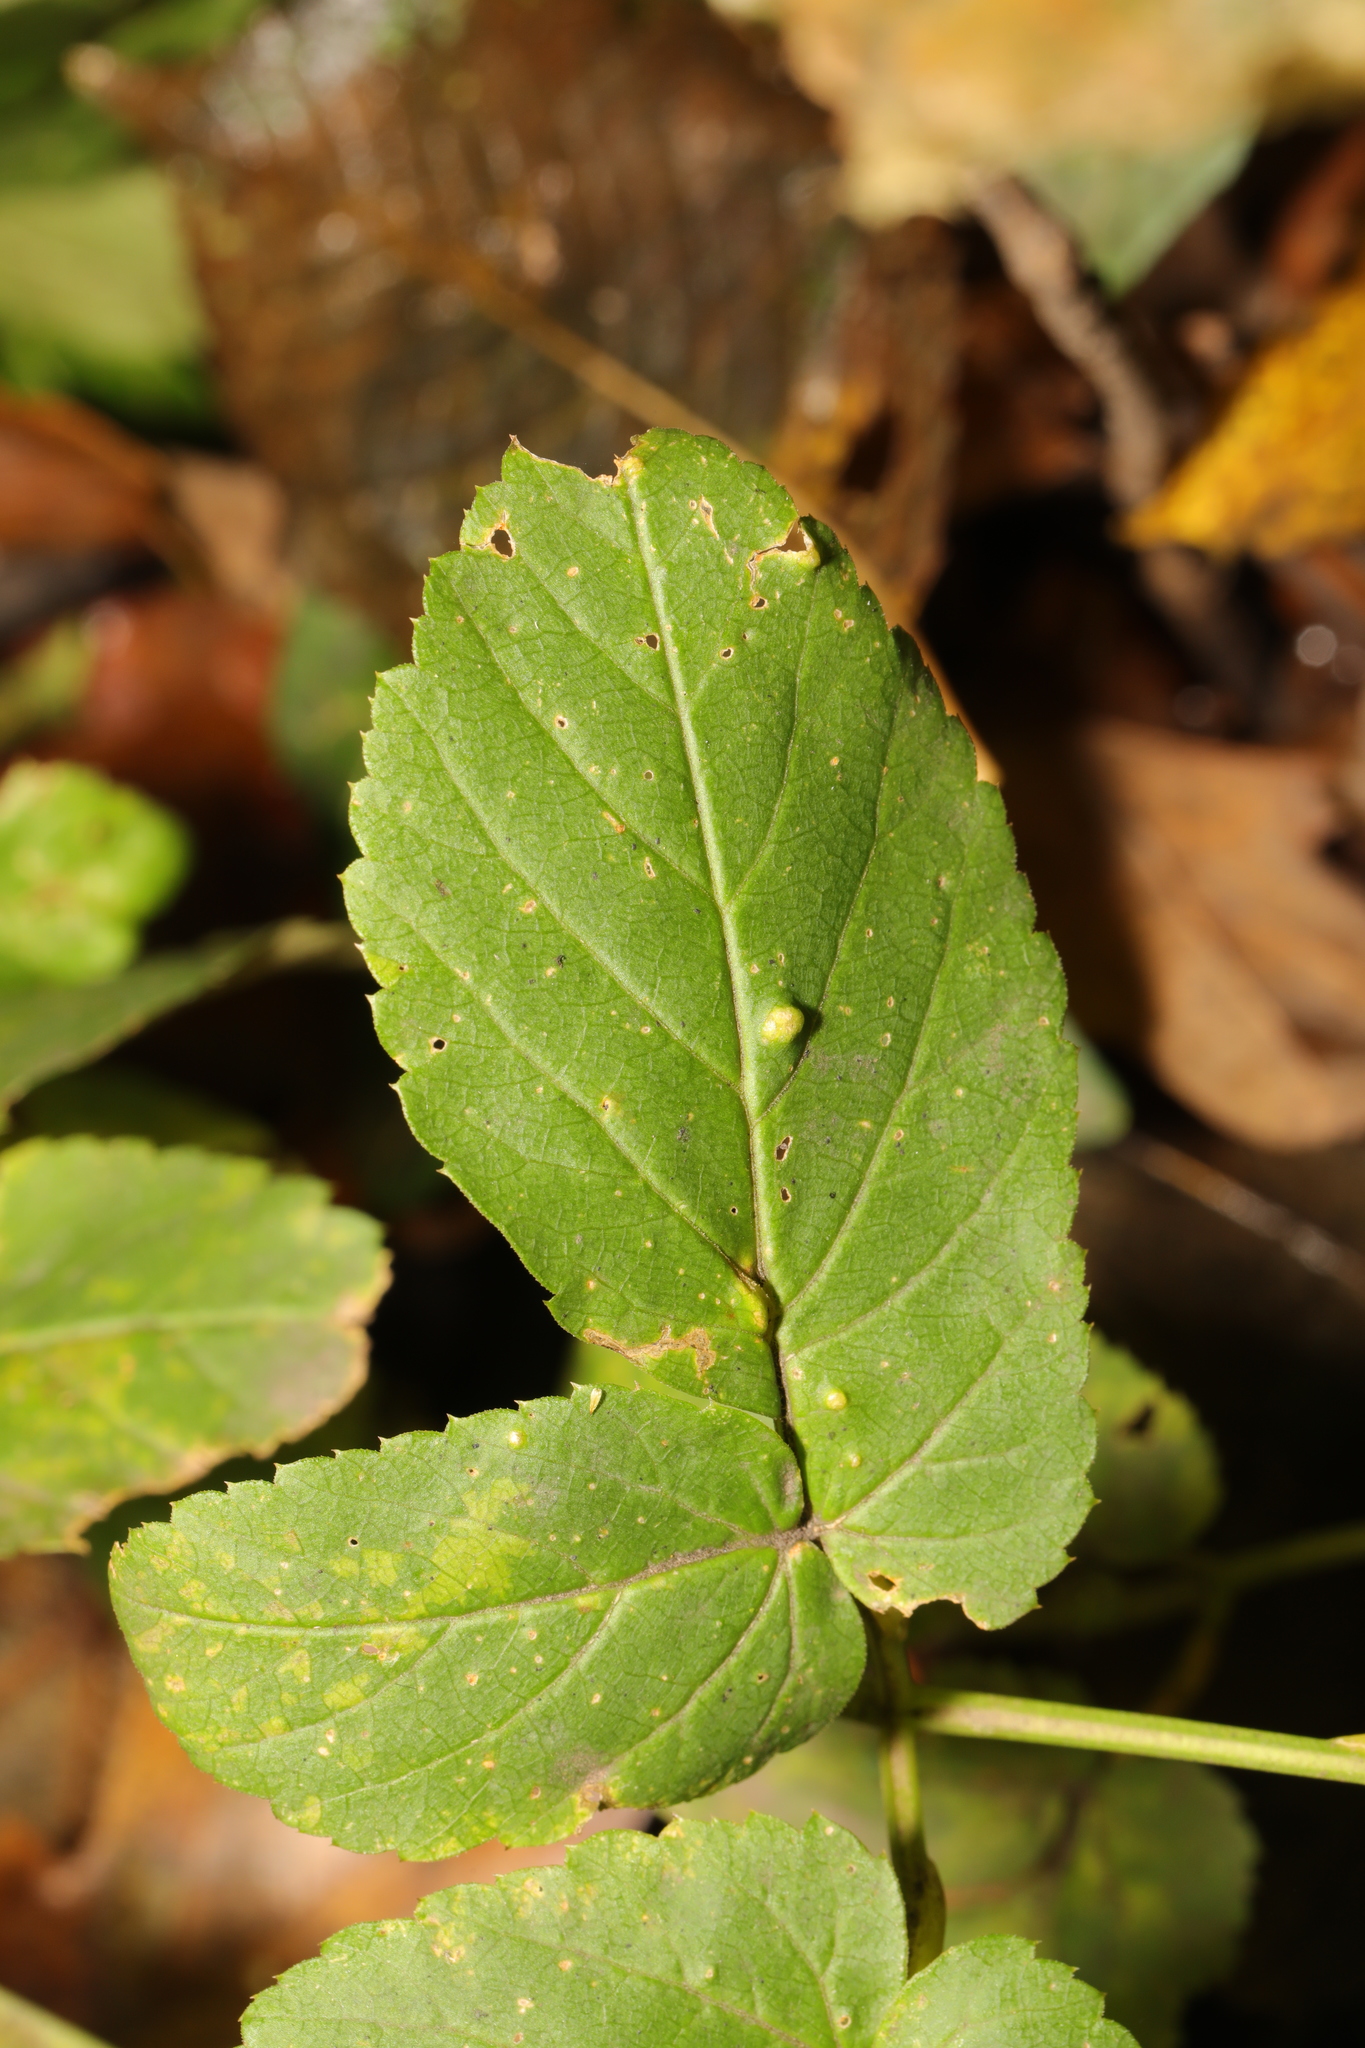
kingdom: Fungi
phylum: Ascomycota
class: Taphrinomycetes
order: Taphrinales
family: Taphrinaceae
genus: Protomyces
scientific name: Protomyces macrosporus
